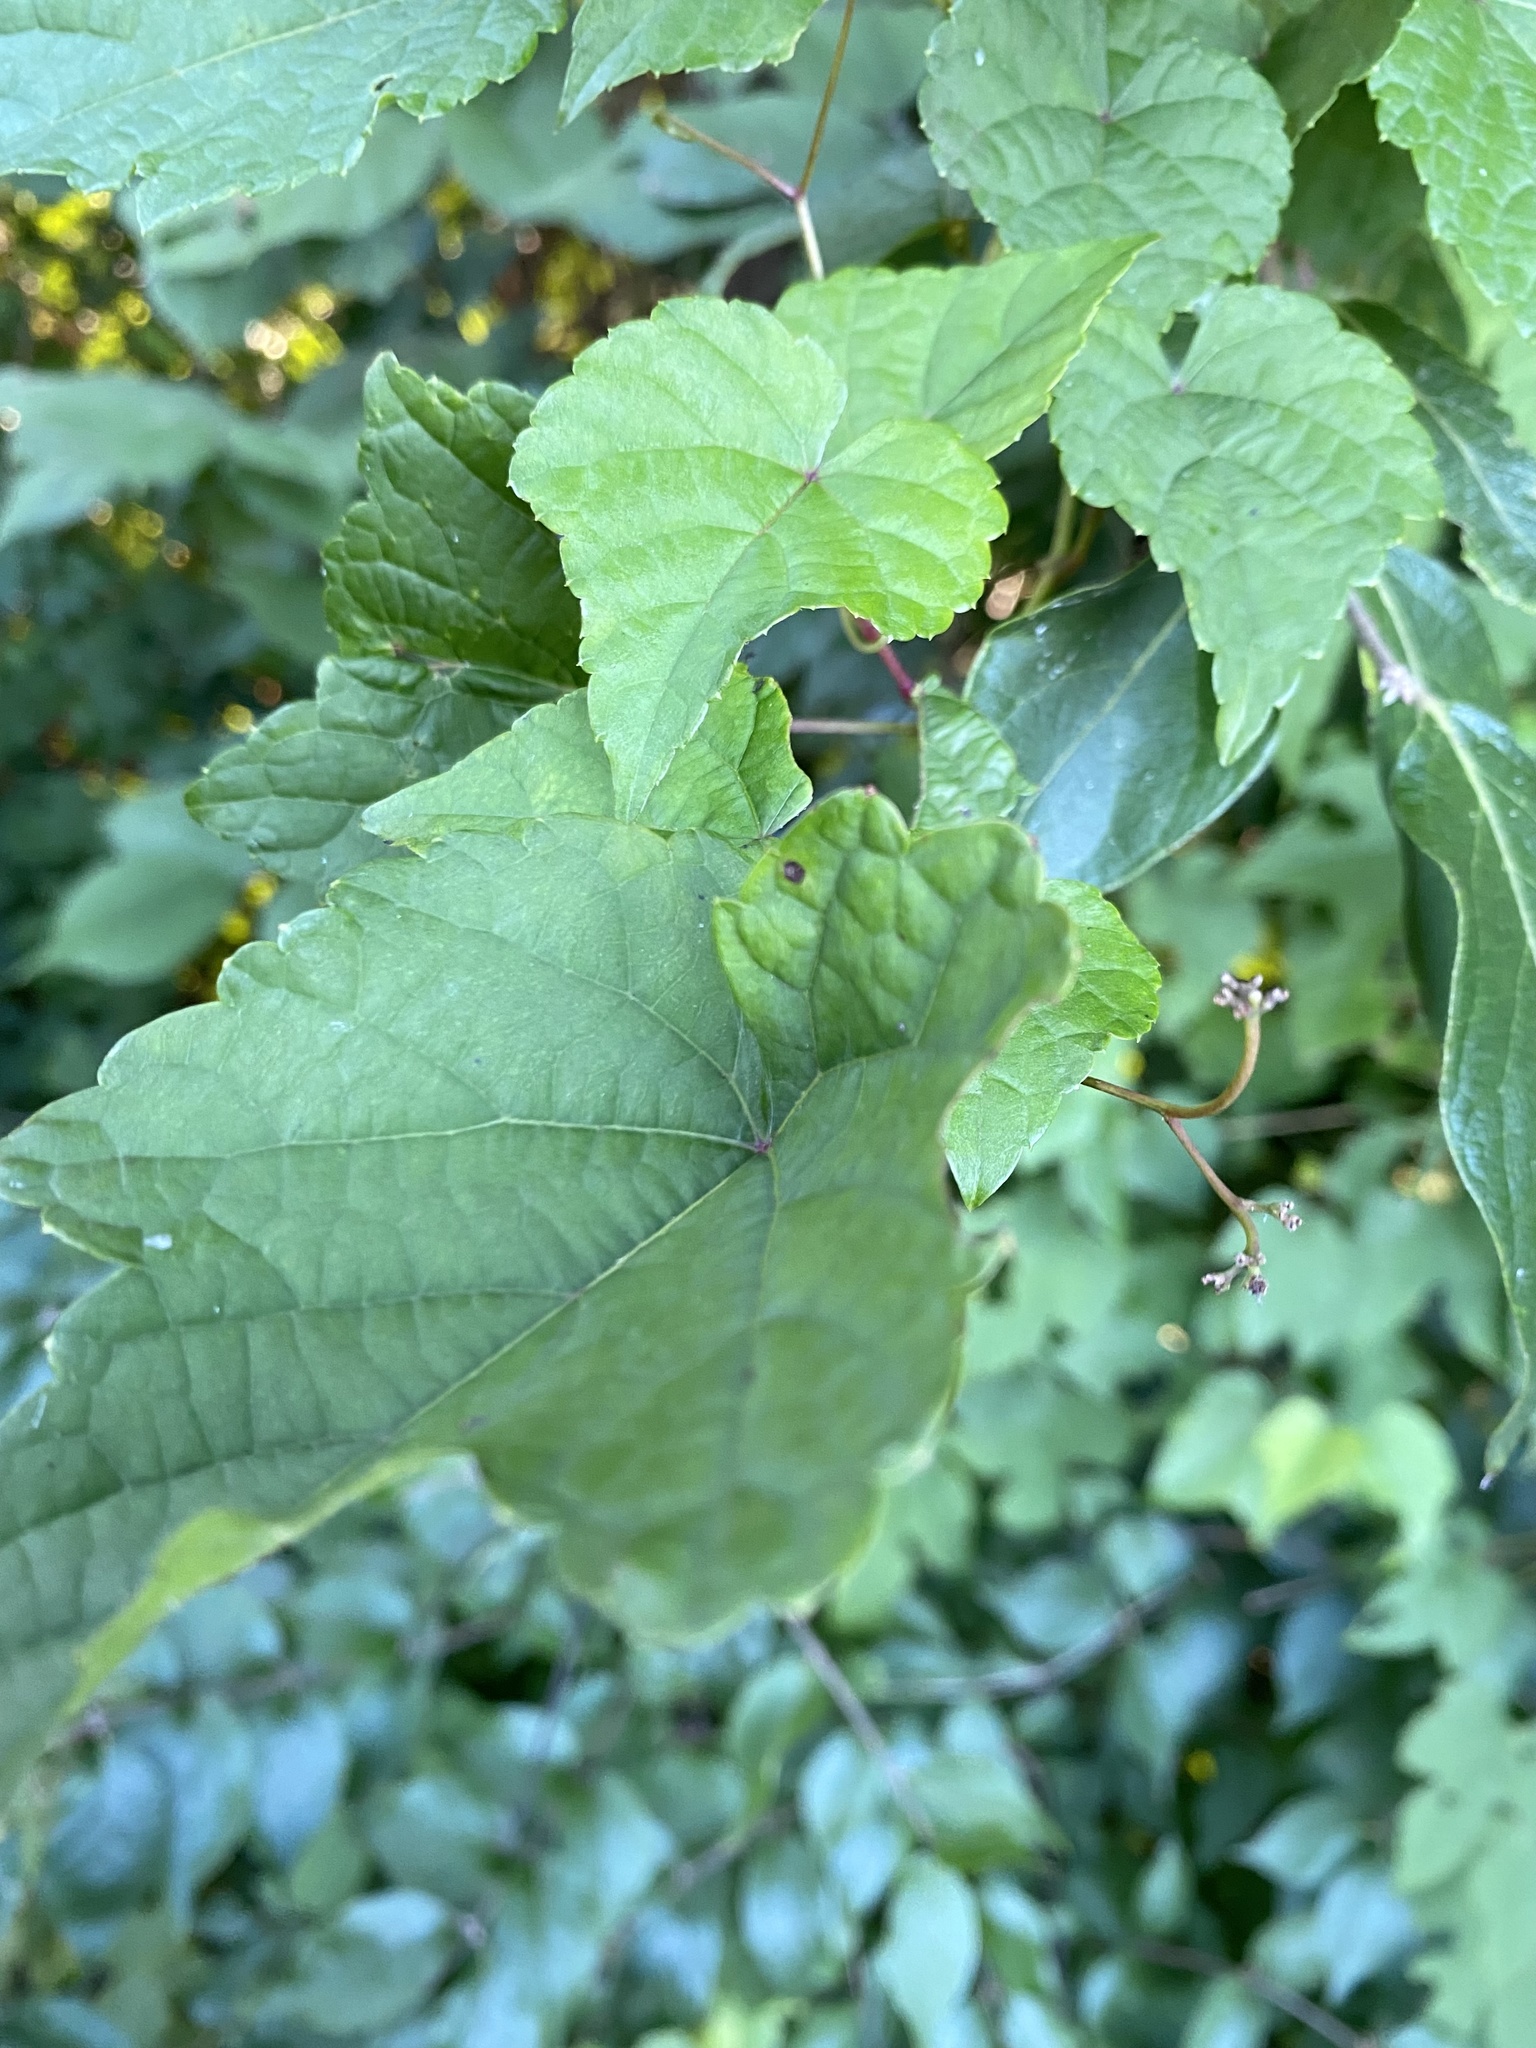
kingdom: Plantae
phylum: Tracheophyta
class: Magnoliopsida
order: Vitales
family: Vitaceae
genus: Ampelopsis
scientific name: Ampelopsis glandulosa
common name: Amur peppervine
